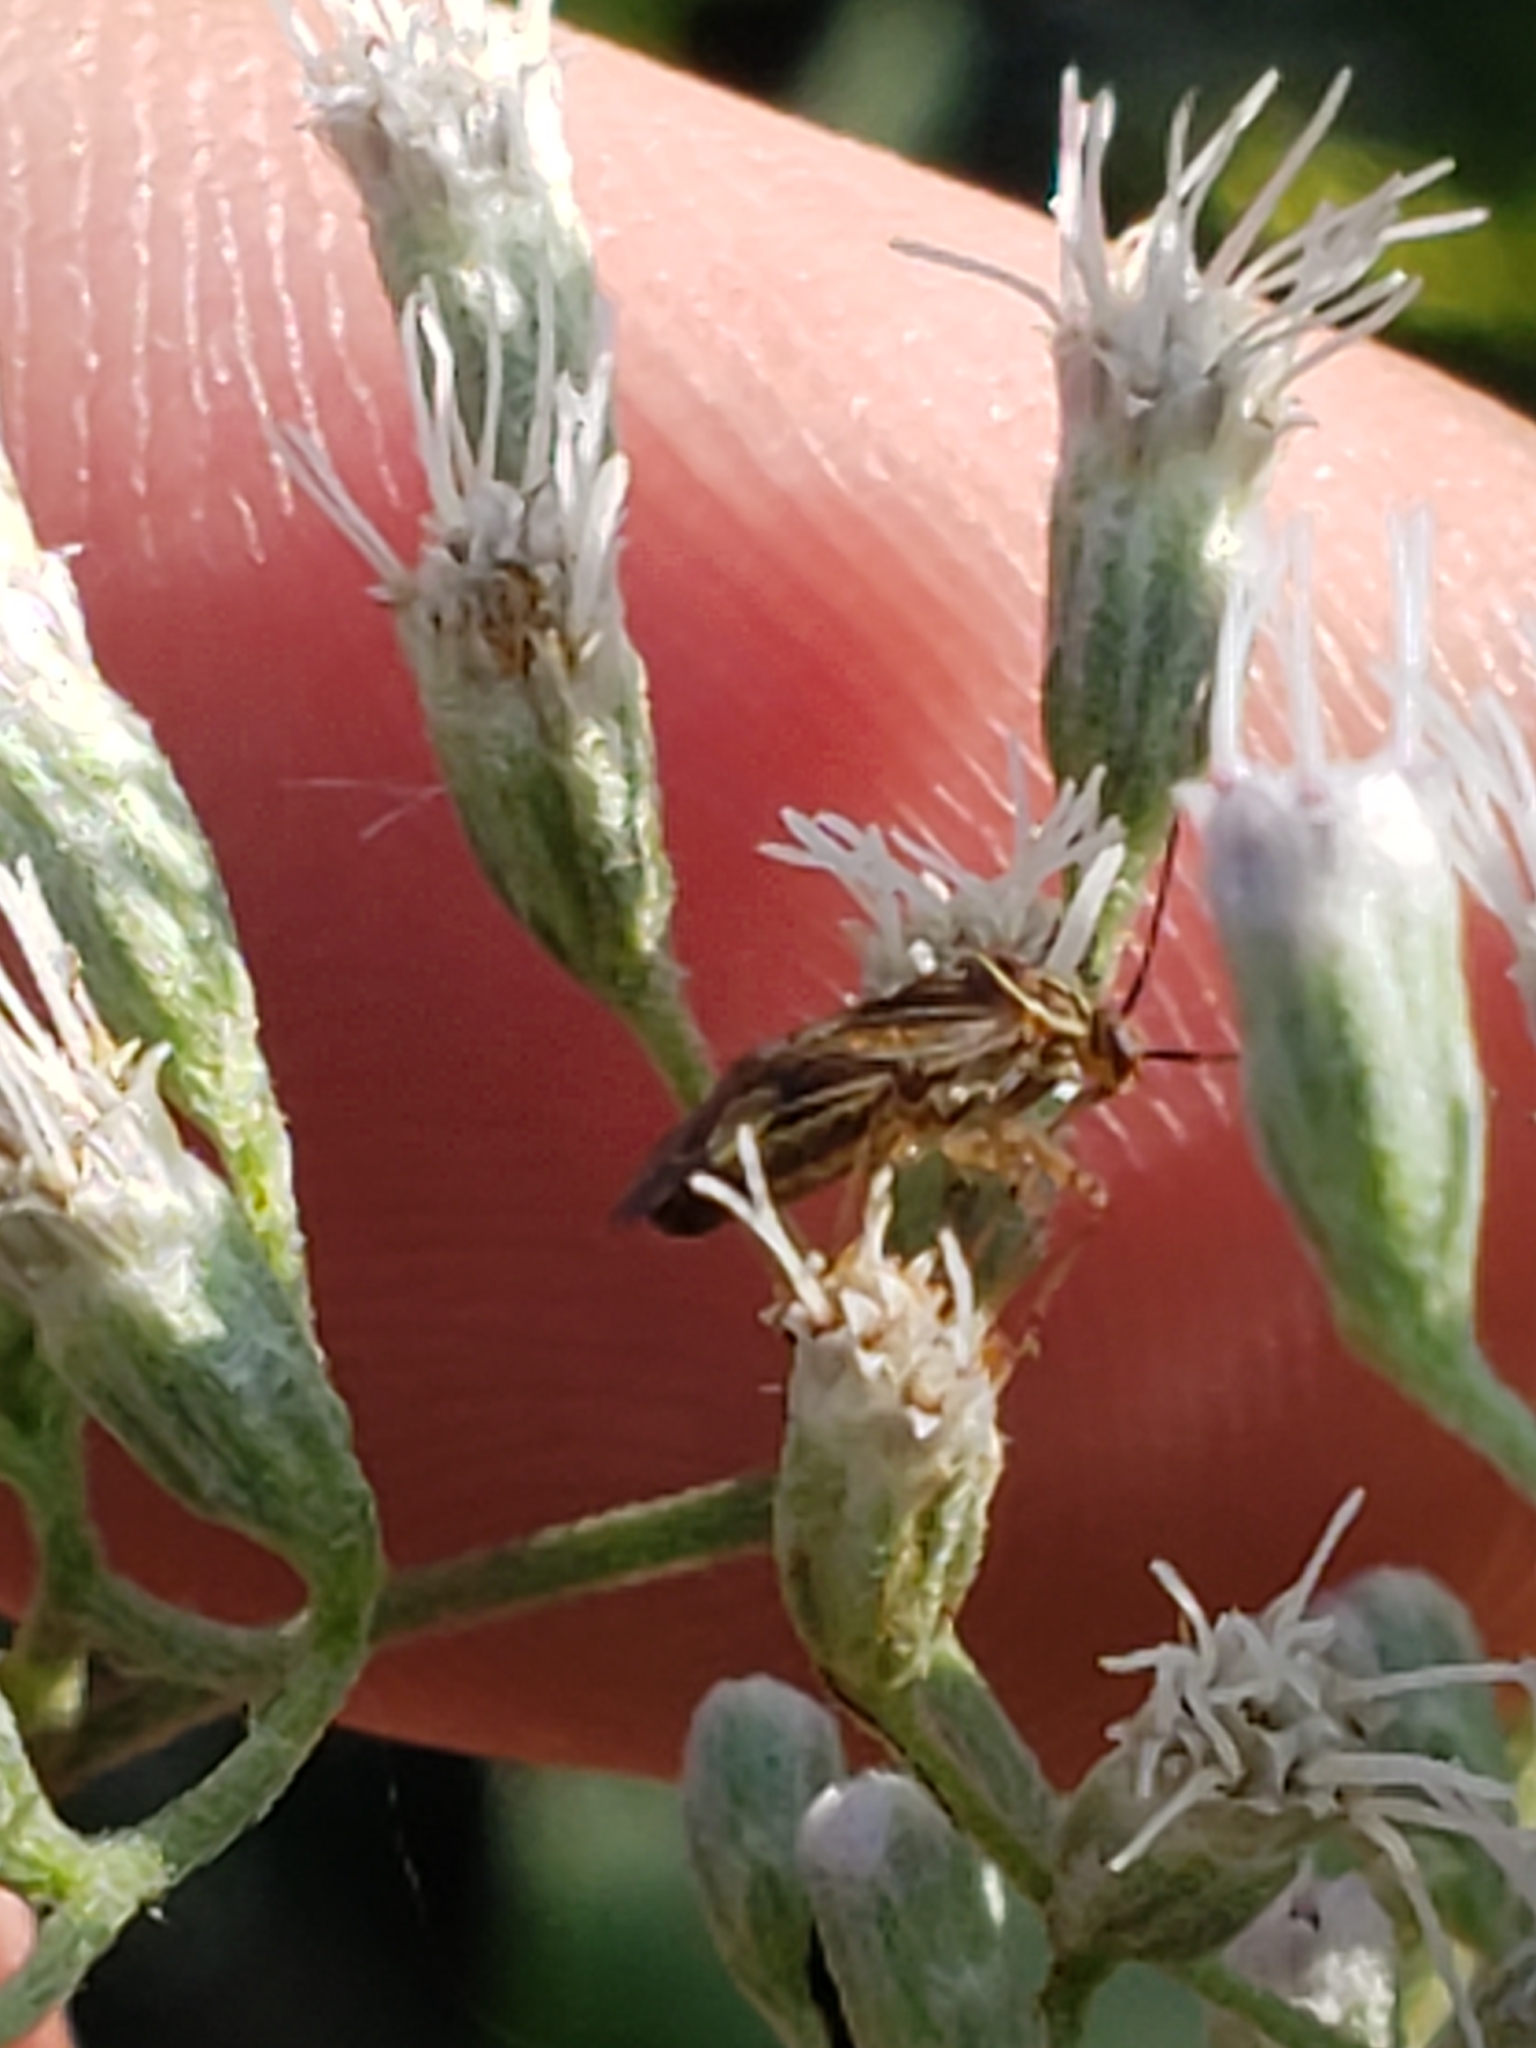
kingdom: Animalia
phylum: Arthropoda
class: Insecta
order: Hemiptera
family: Miridae
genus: Lygus
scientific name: Lygus lineolaris
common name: North american tarnished plant bug
